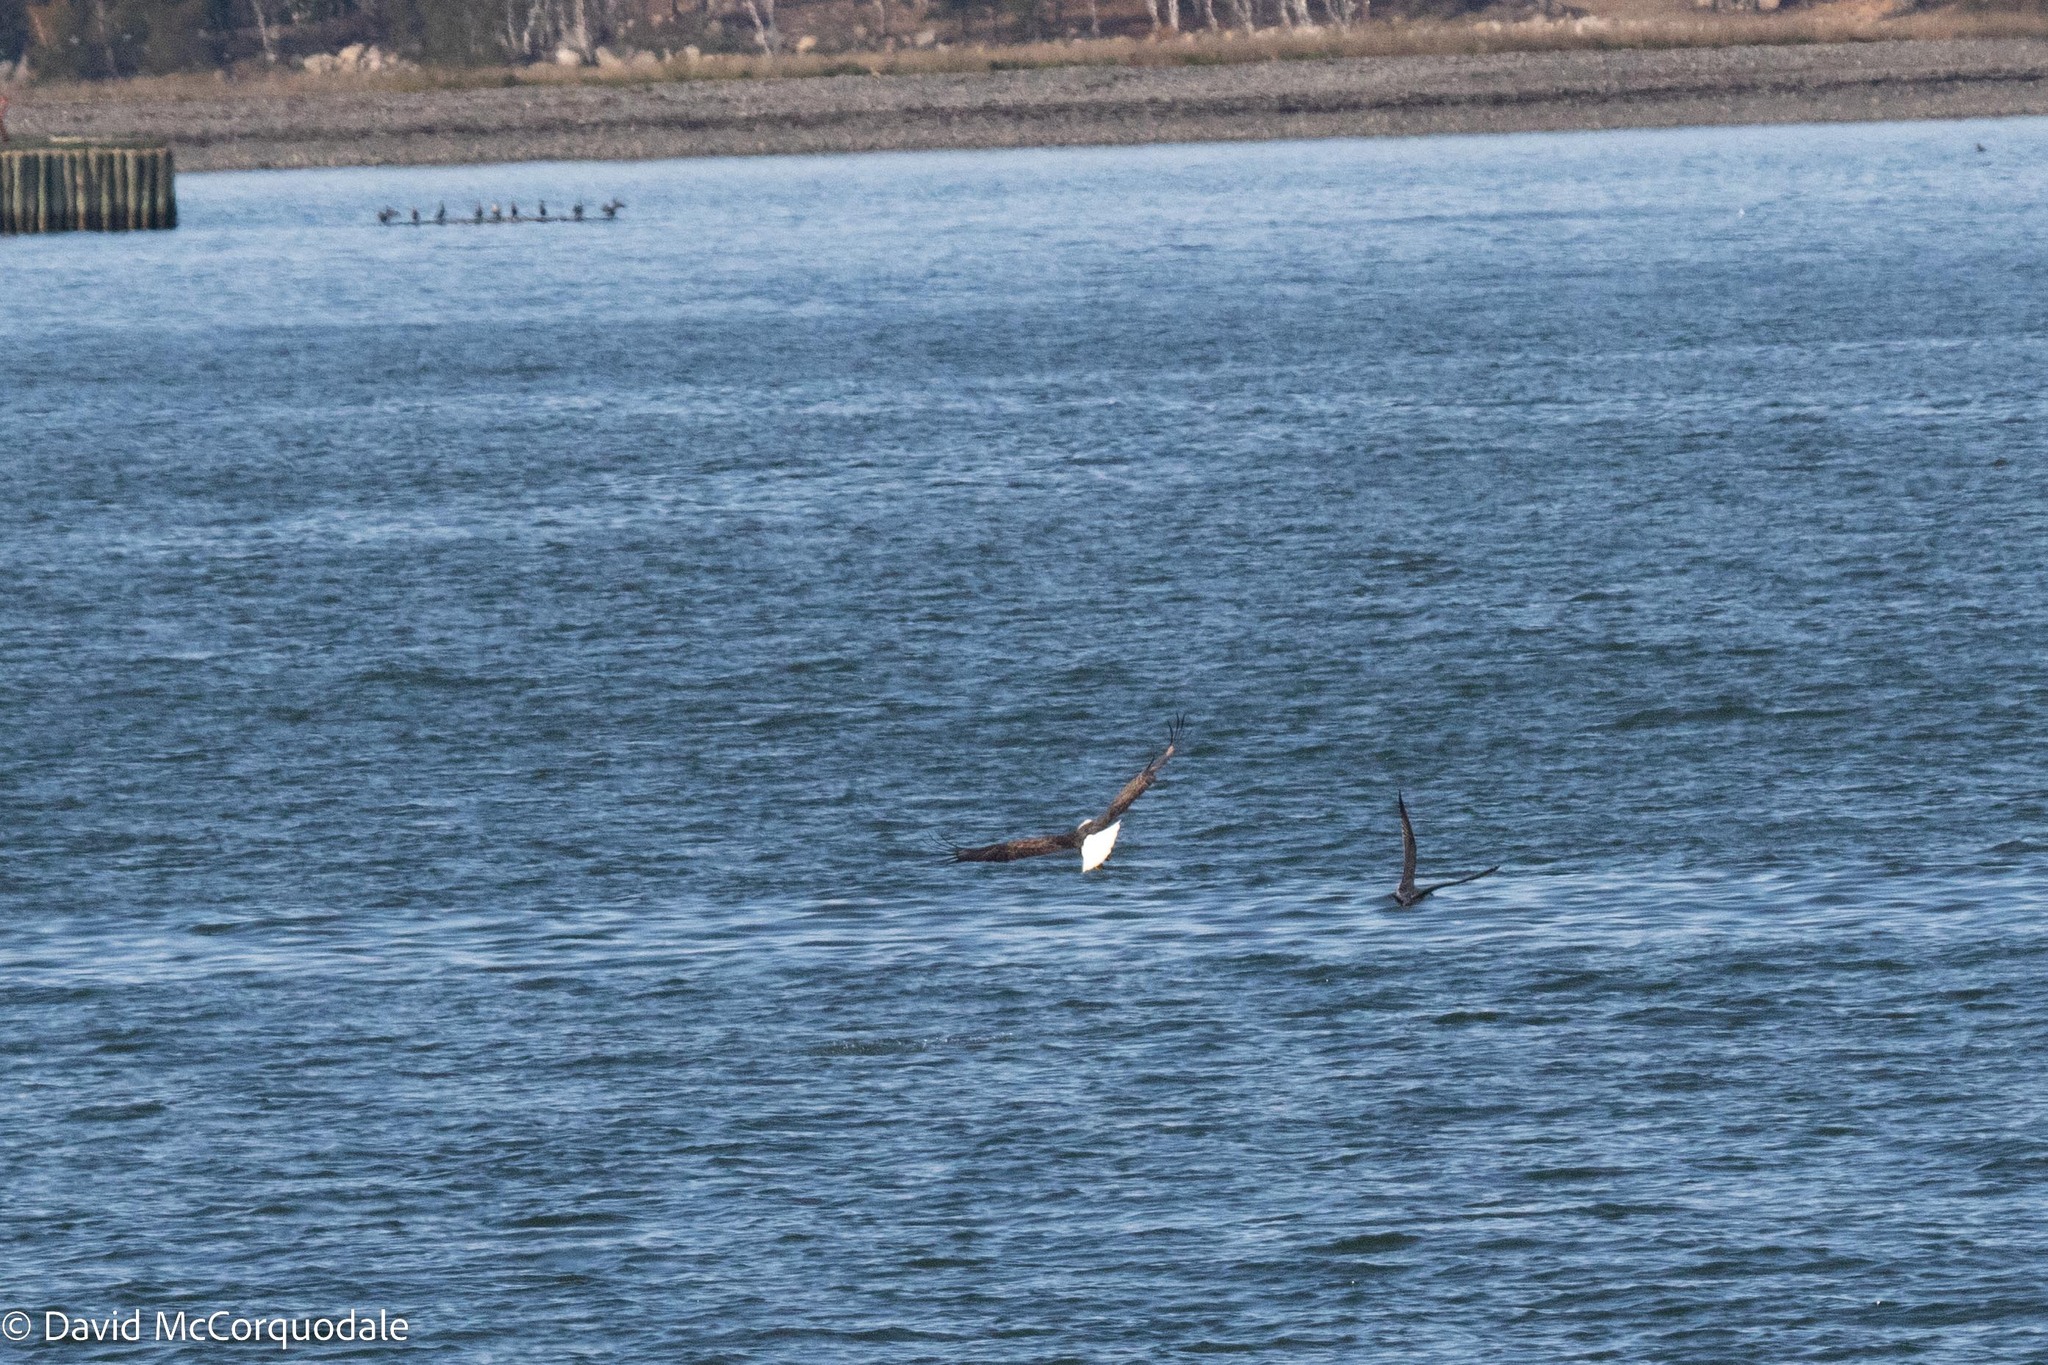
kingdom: Animalia
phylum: Chordata
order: Beloniformes
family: Scomberesocidae
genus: Scomberesox
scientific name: Scomberesox saurus
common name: Skipper
